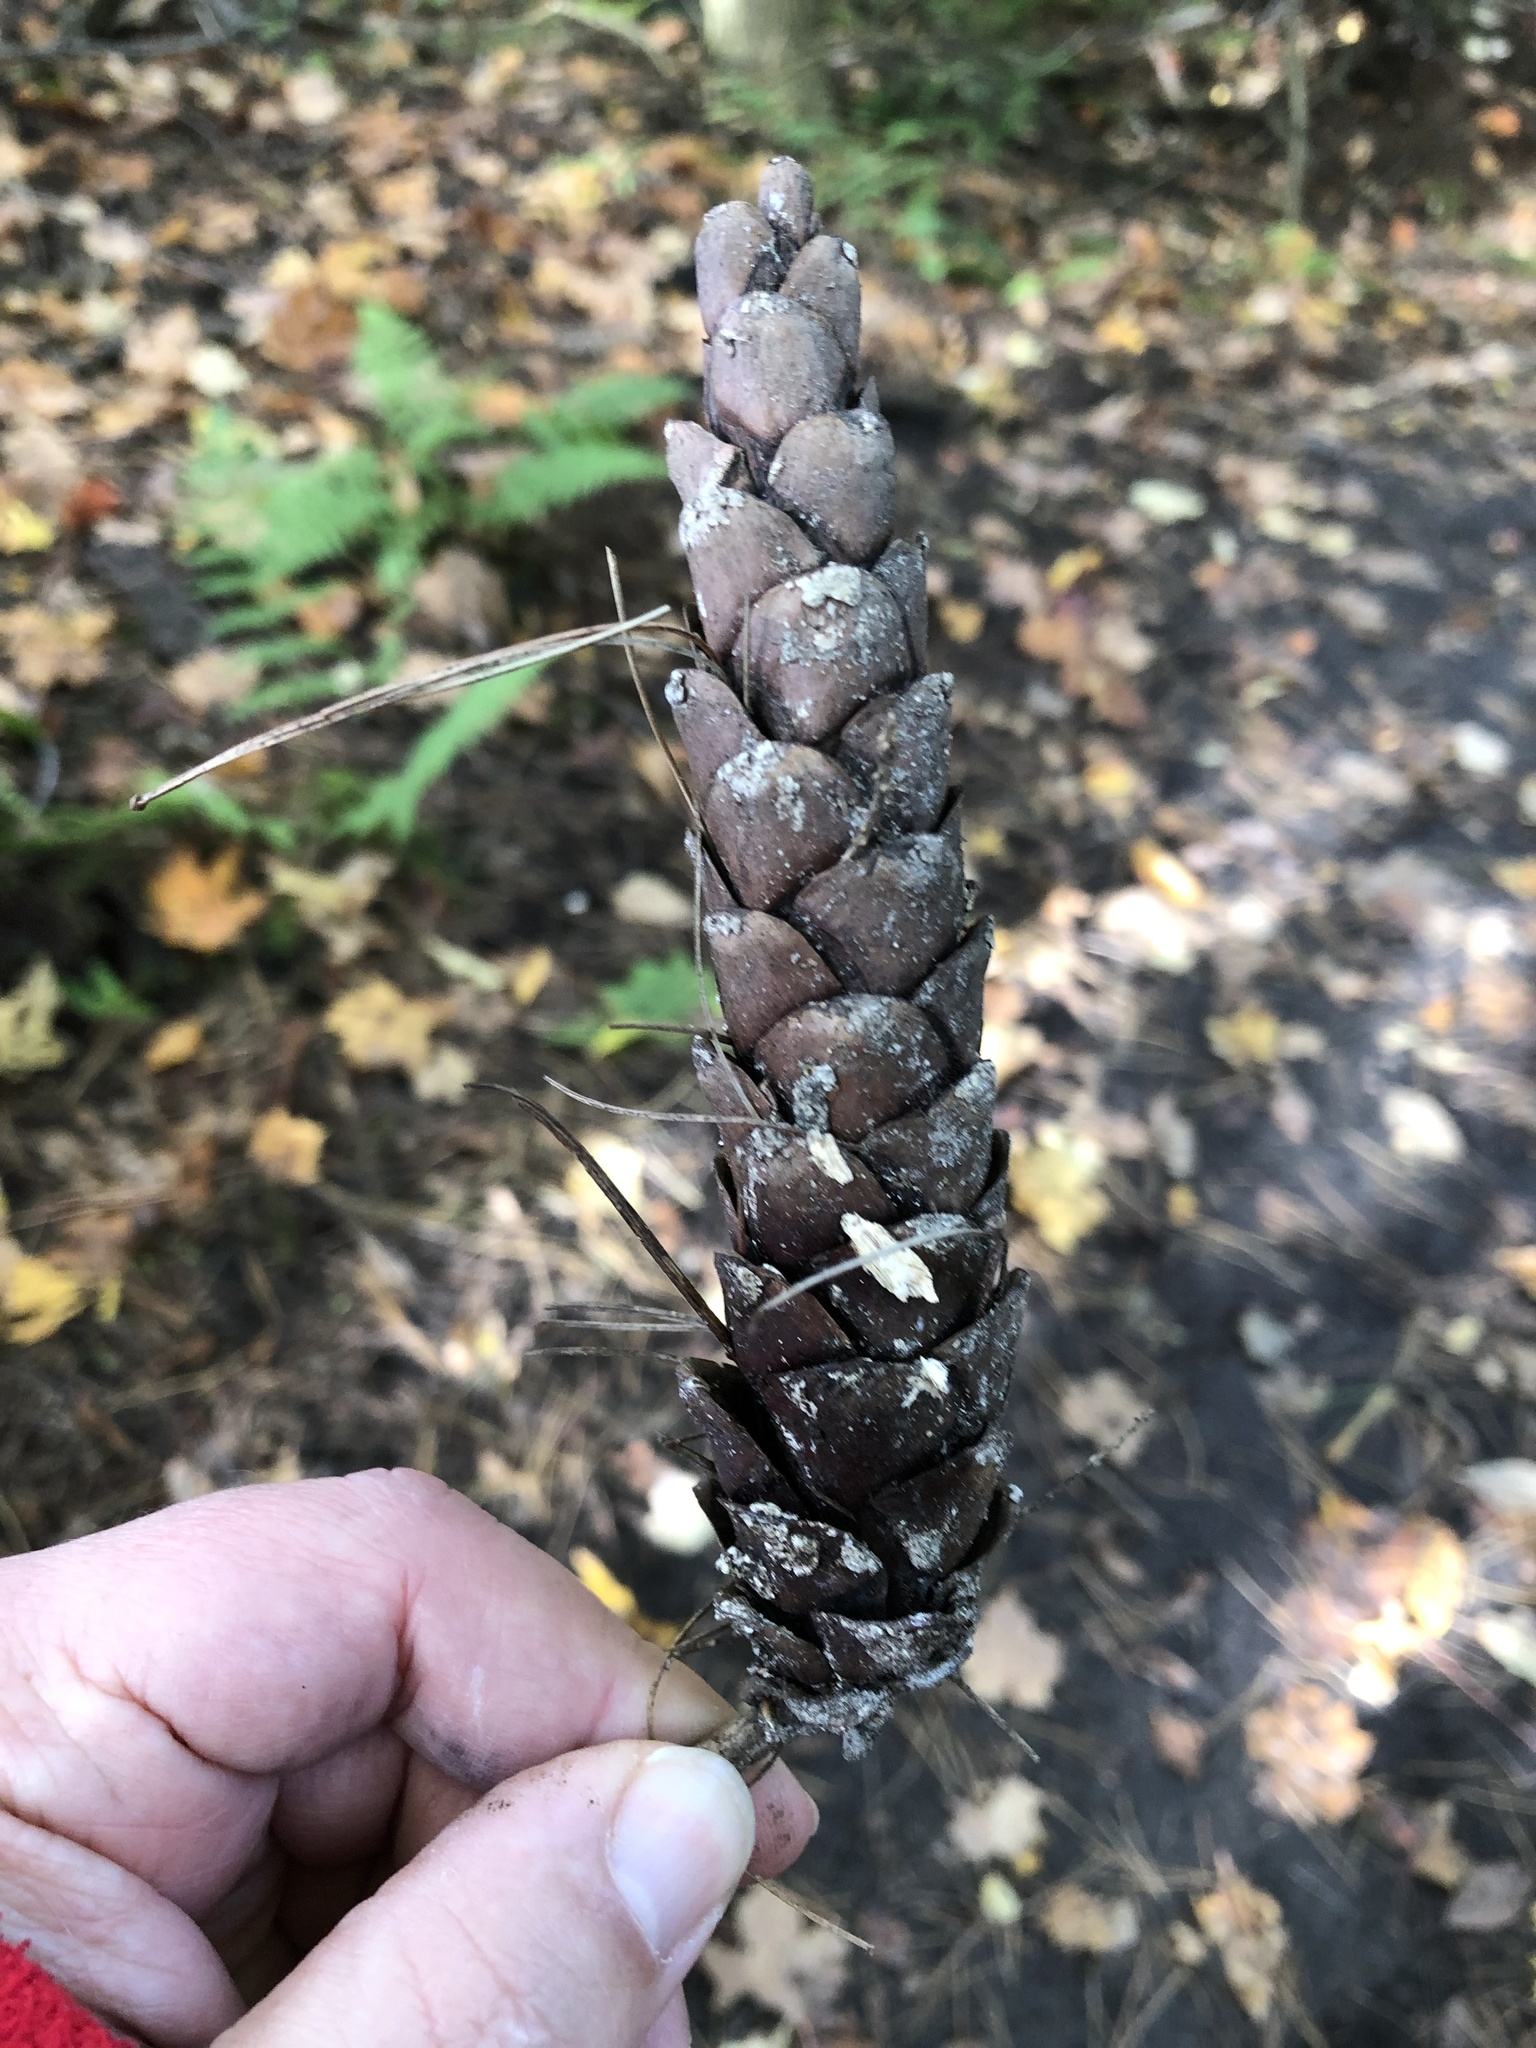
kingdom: Plantae
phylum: Tracheophyta
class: Pinopsida
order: Pinales
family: Pinaceae
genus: Pinus
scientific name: Pinus strobus
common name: Weymouth pine
